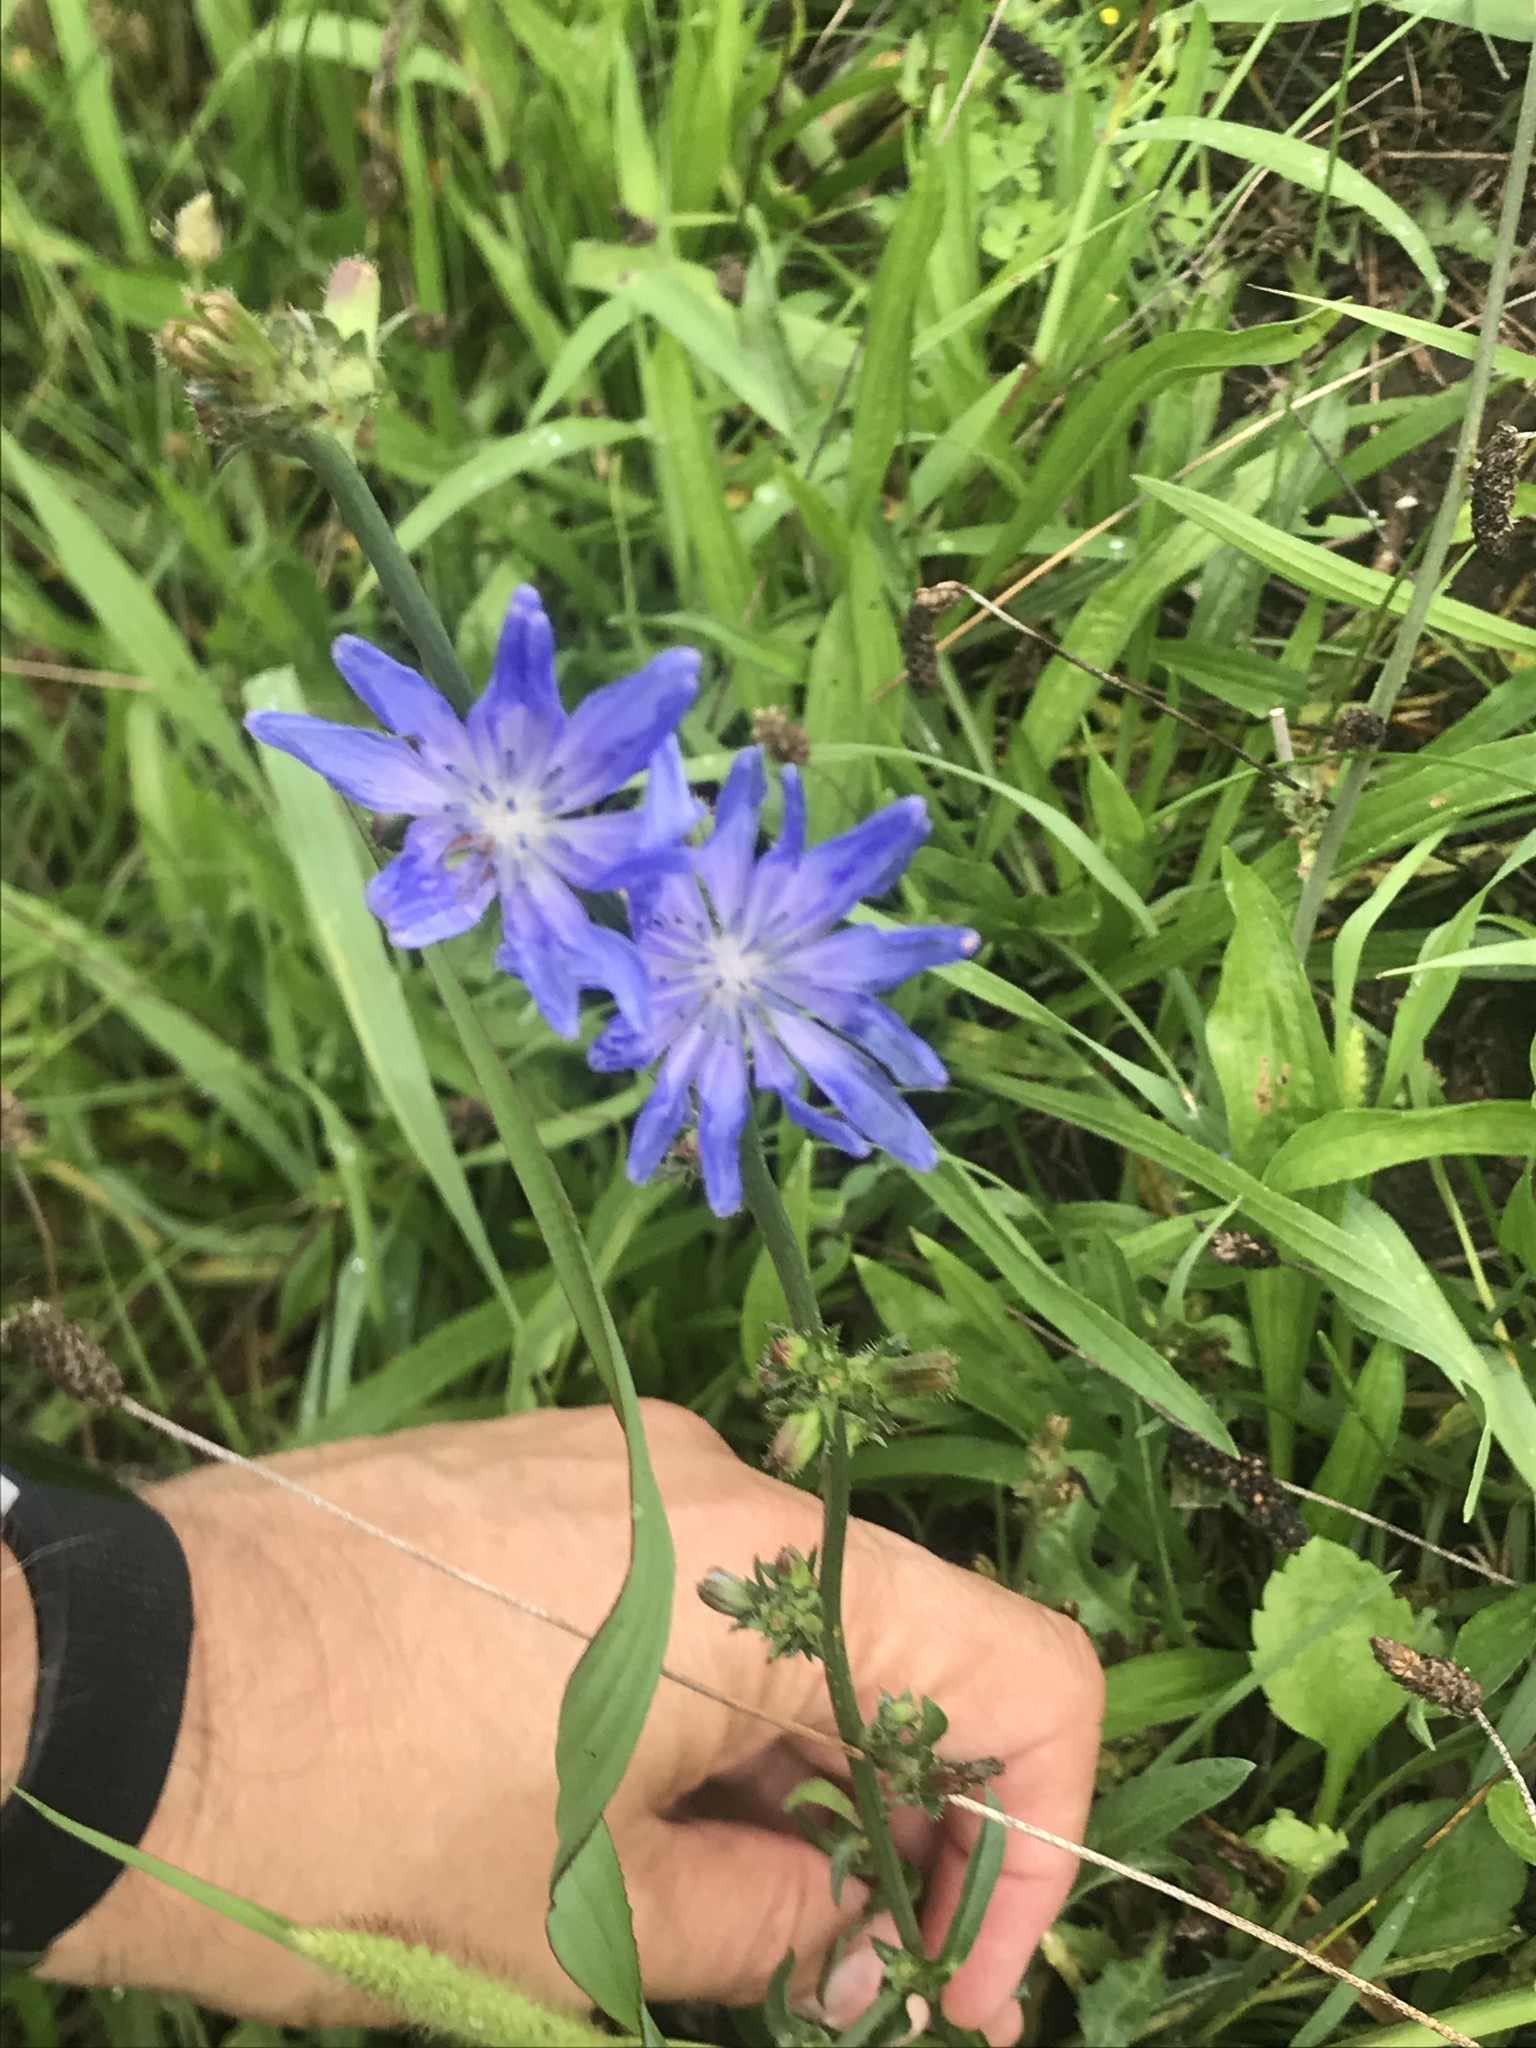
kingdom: Plantae
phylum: Tracheophyta
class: Magnoliopsida
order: Asterales
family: Asteraceae
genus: Cichorium
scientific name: Cichorium intybus
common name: Chicory
